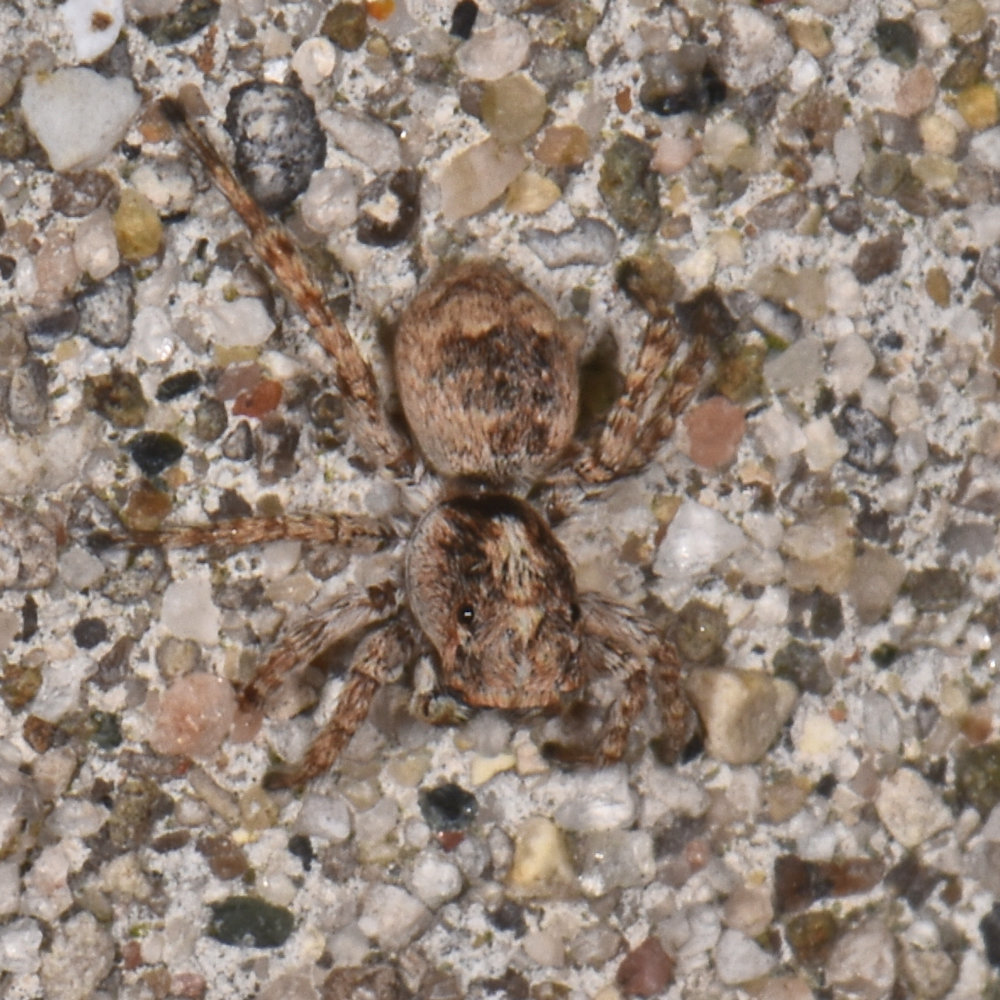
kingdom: Animalia
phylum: Arthropoda
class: Arachnida
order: Araneae
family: Salticidae
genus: Attulus
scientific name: Attulus fasciger
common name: Asiatic wall jumping spider
